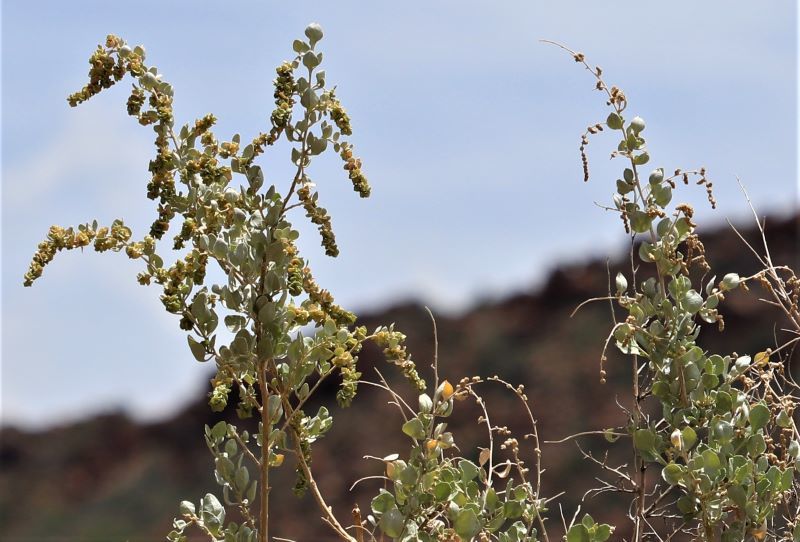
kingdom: Plantae
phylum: Tracheophyta
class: Magnoliopsida
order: Caryophyllales
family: Amaranthaceae
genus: Atriplex
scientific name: Atriplex nummularia
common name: Bluegreen saltbush
